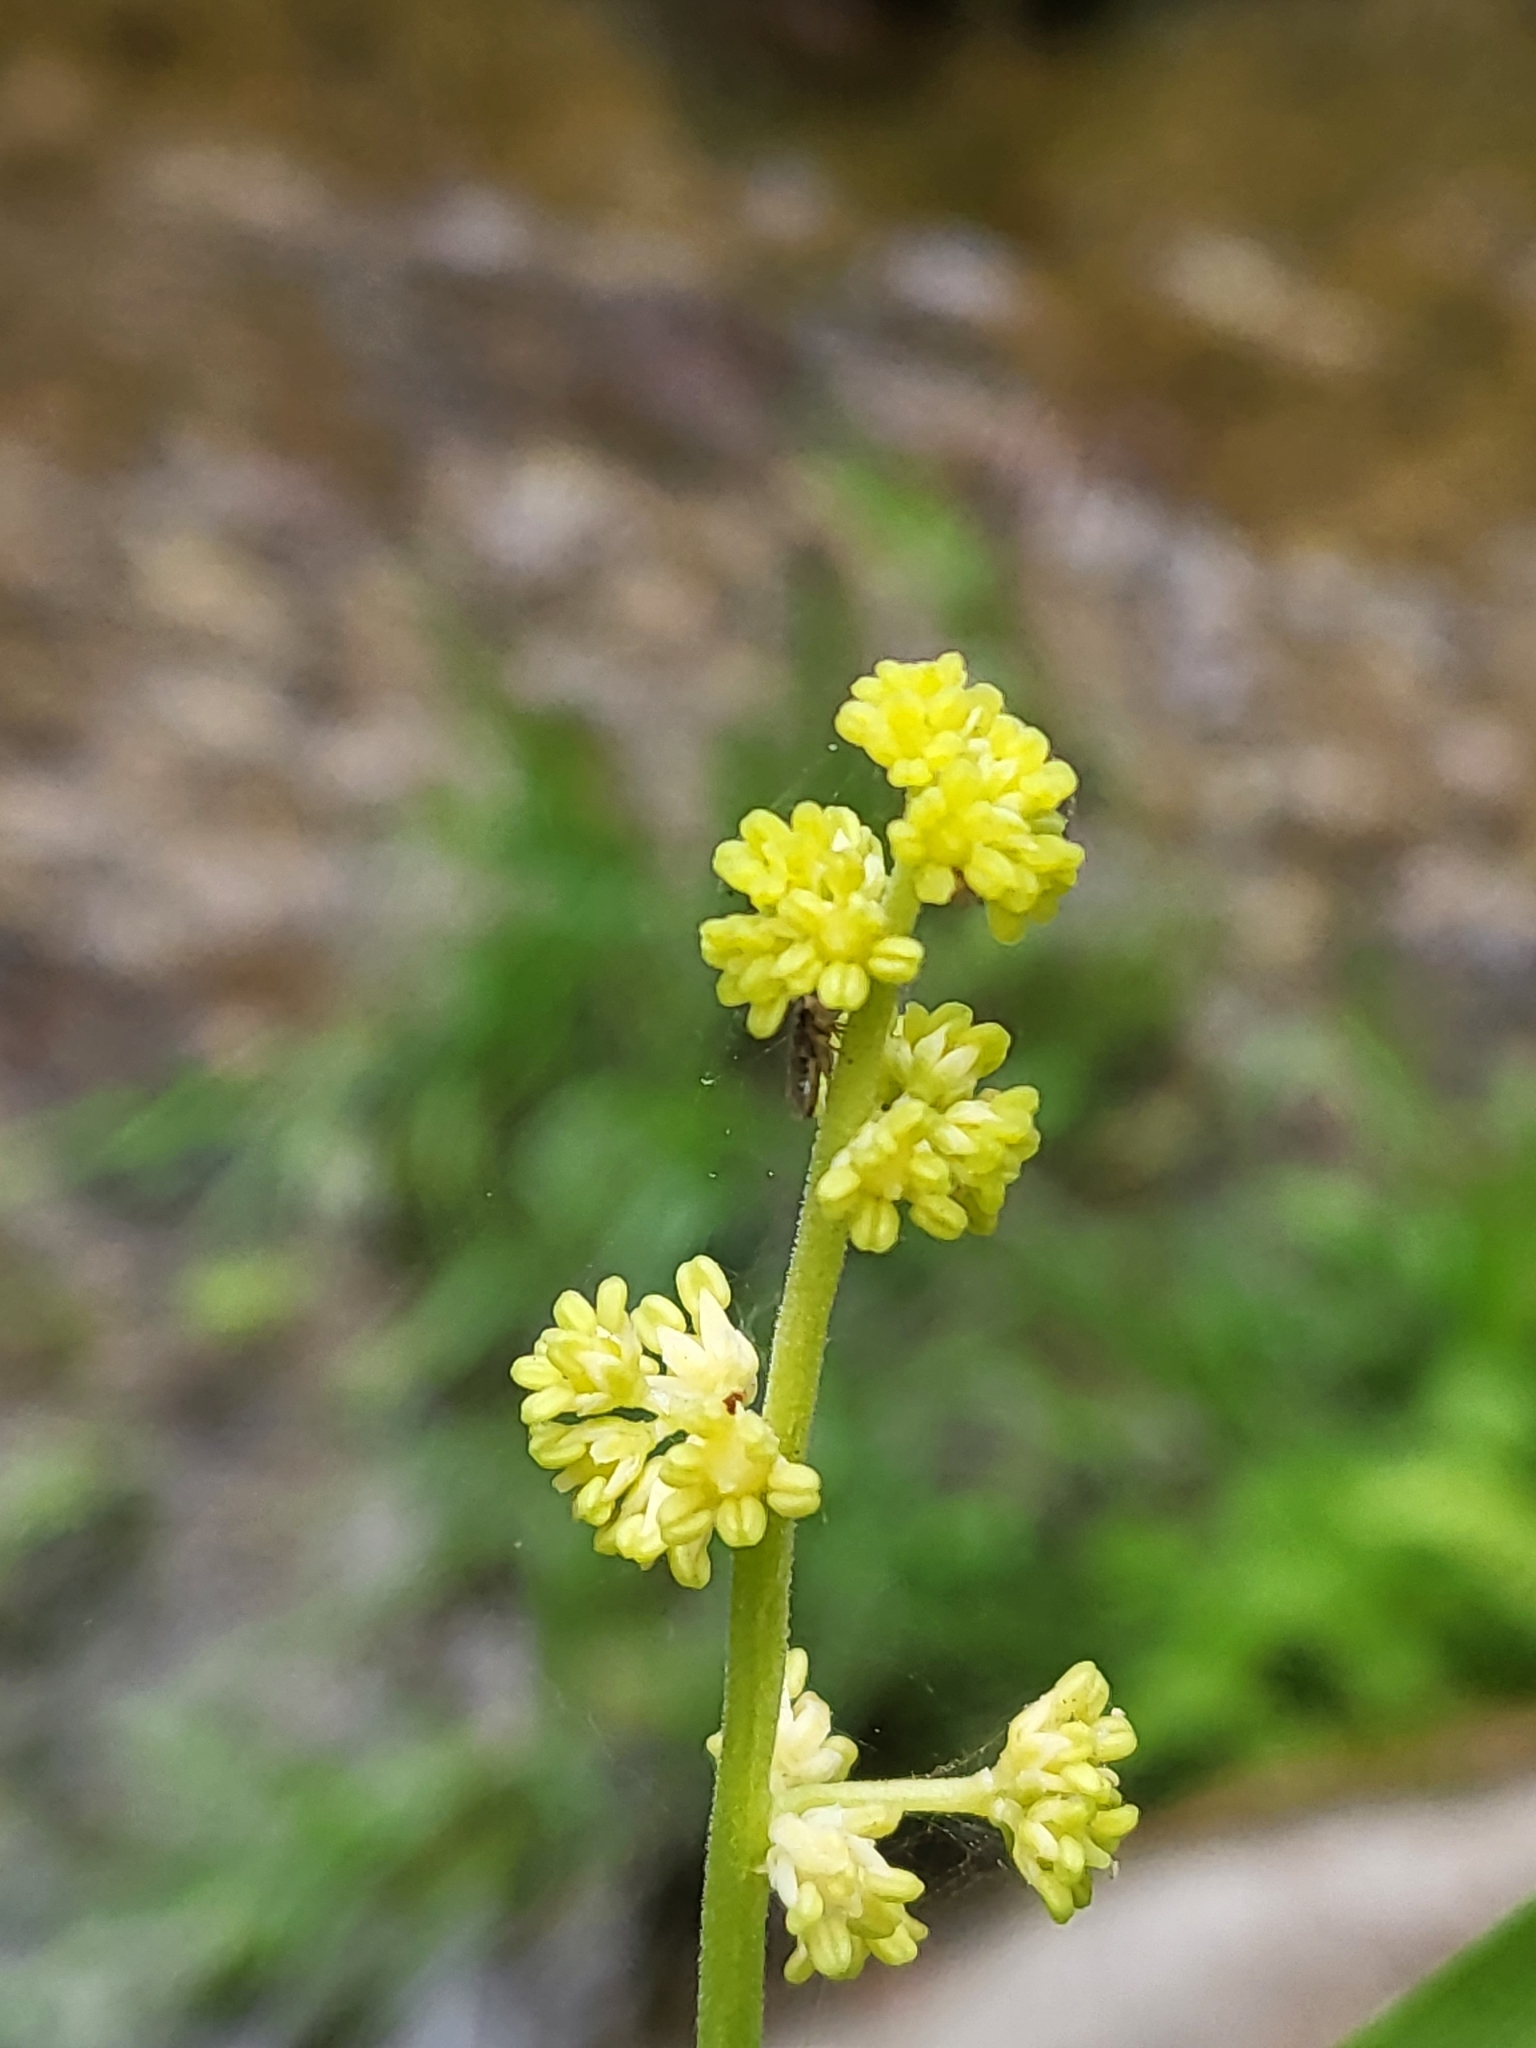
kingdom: Plantae
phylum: Tracheophyta
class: Liliopsida
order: Asparagales
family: Asparagaceae
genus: Maianthemum
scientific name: Maianthemum racemosum
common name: False spikenard
